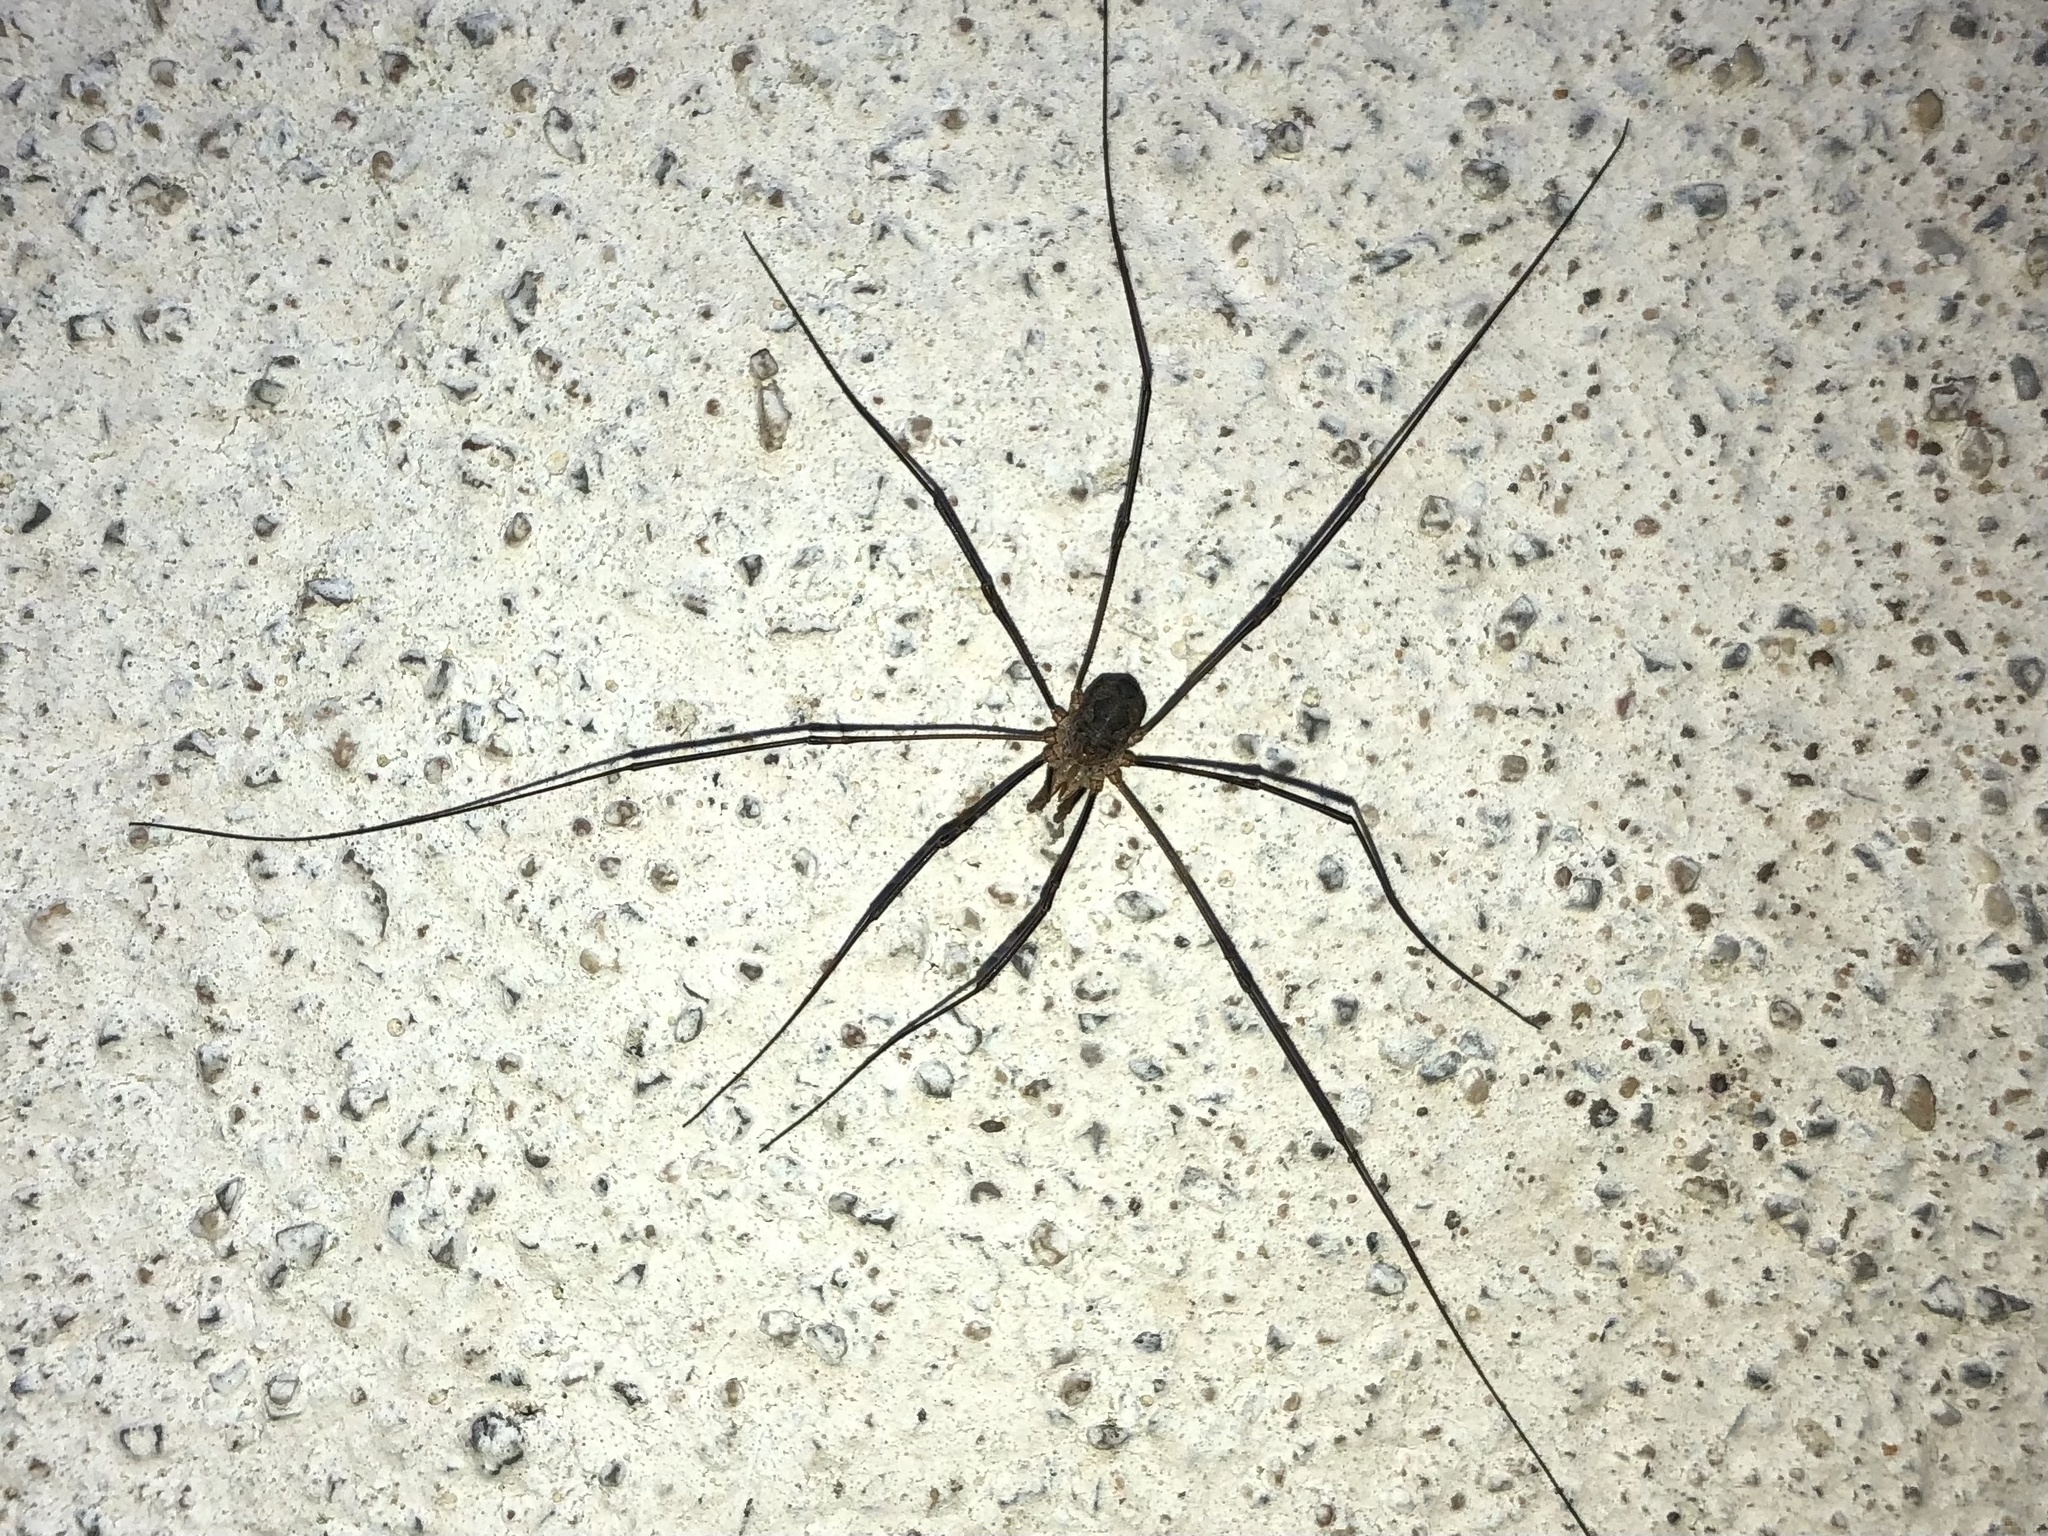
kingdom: Animalia
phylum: Arthropoda
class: Arachnida
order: Opiliones
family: Phalangiidae
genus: Phalangium
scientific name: Phalangium opilio
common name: Daddy longleg
